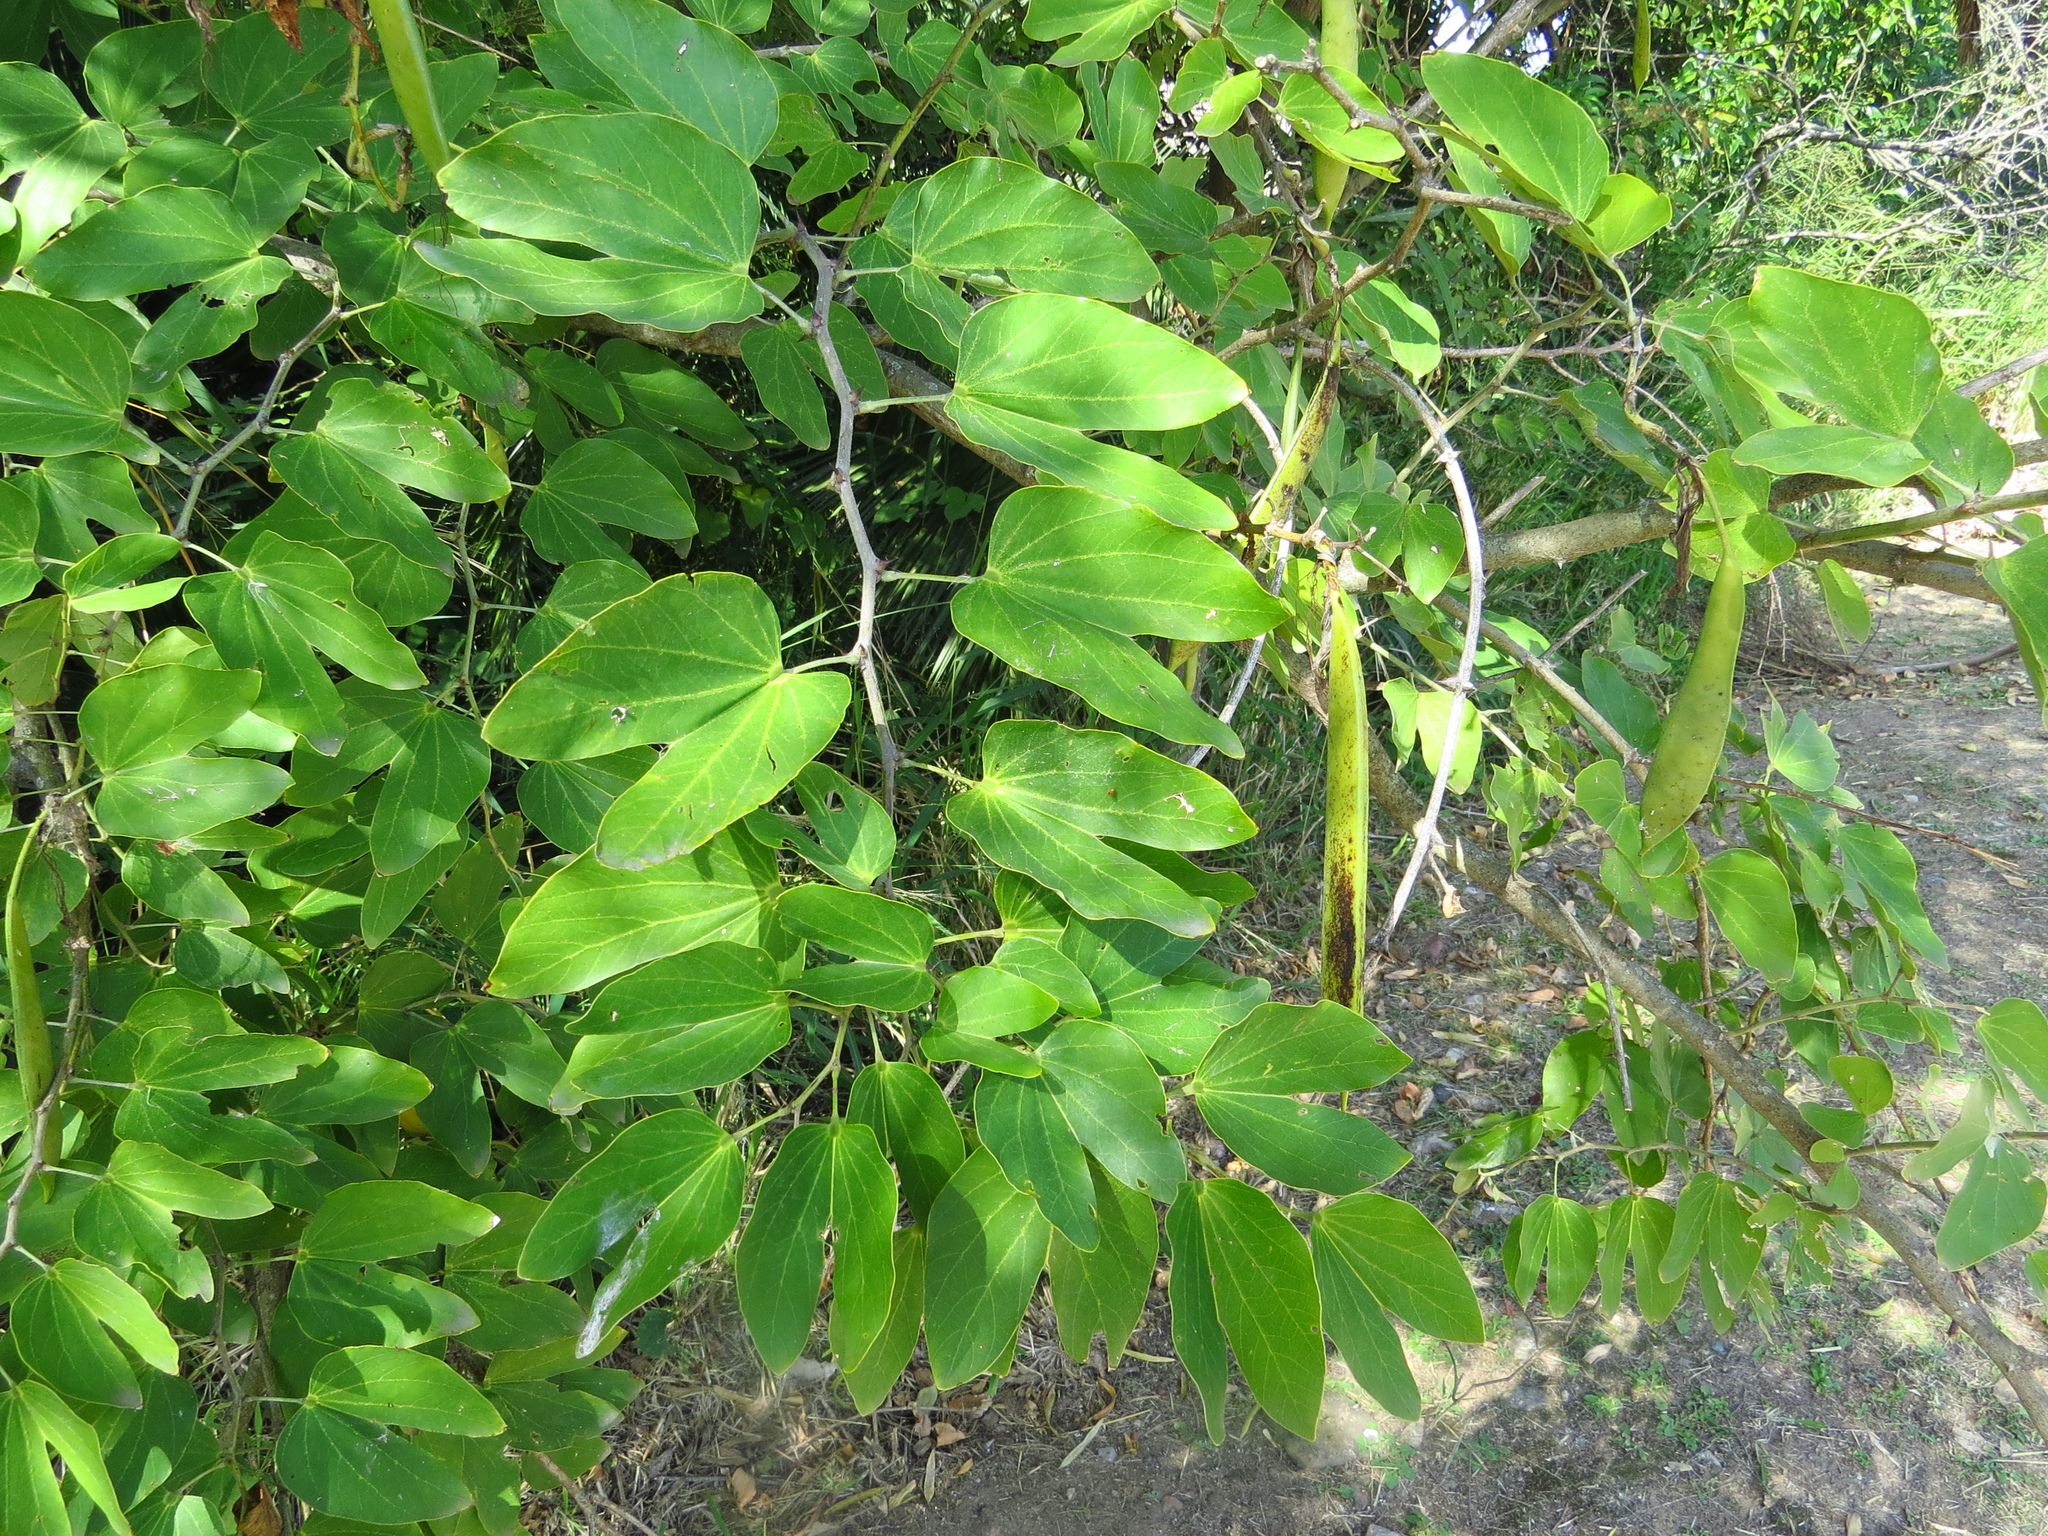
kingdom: Plantae
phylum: Tracheophyta
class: Magnoliopsida
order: Fabales
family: Fabaceae
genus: Bauhinia
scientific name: Bauhinia forficata
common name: Orchid tree
